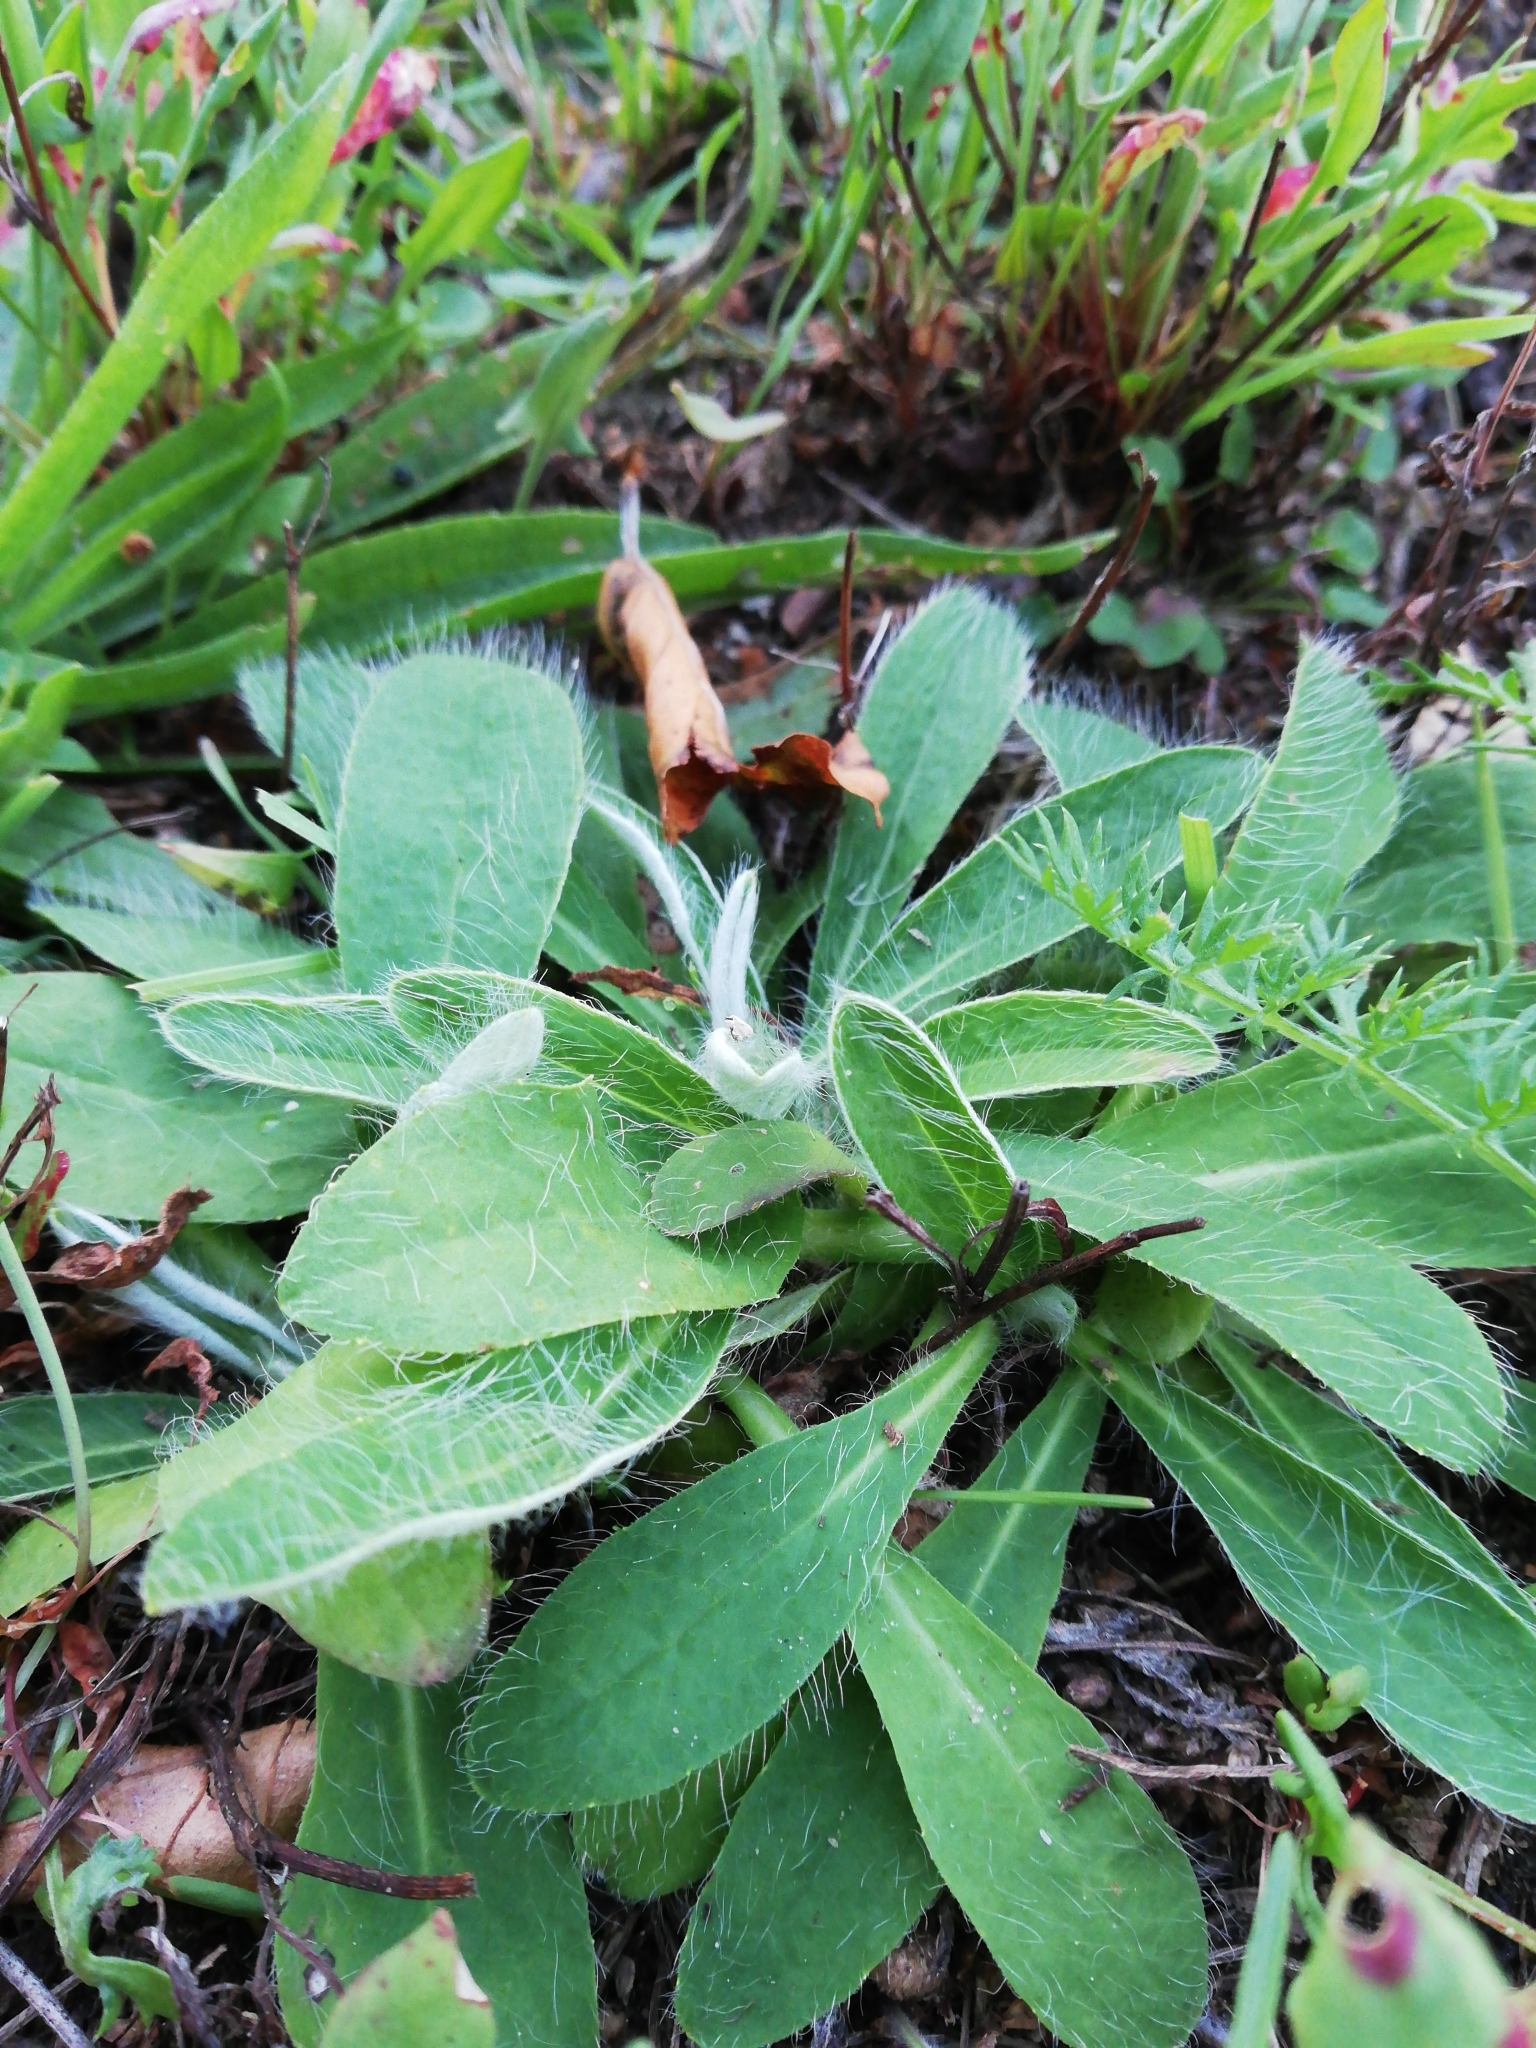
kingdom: Plantae
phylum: Tracheophyta
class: Magnoliopsida
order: Asterales
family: Asteraceae
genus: Pilosella
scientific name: Pilosella officinarum
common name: Mouse-ear hawkweed
